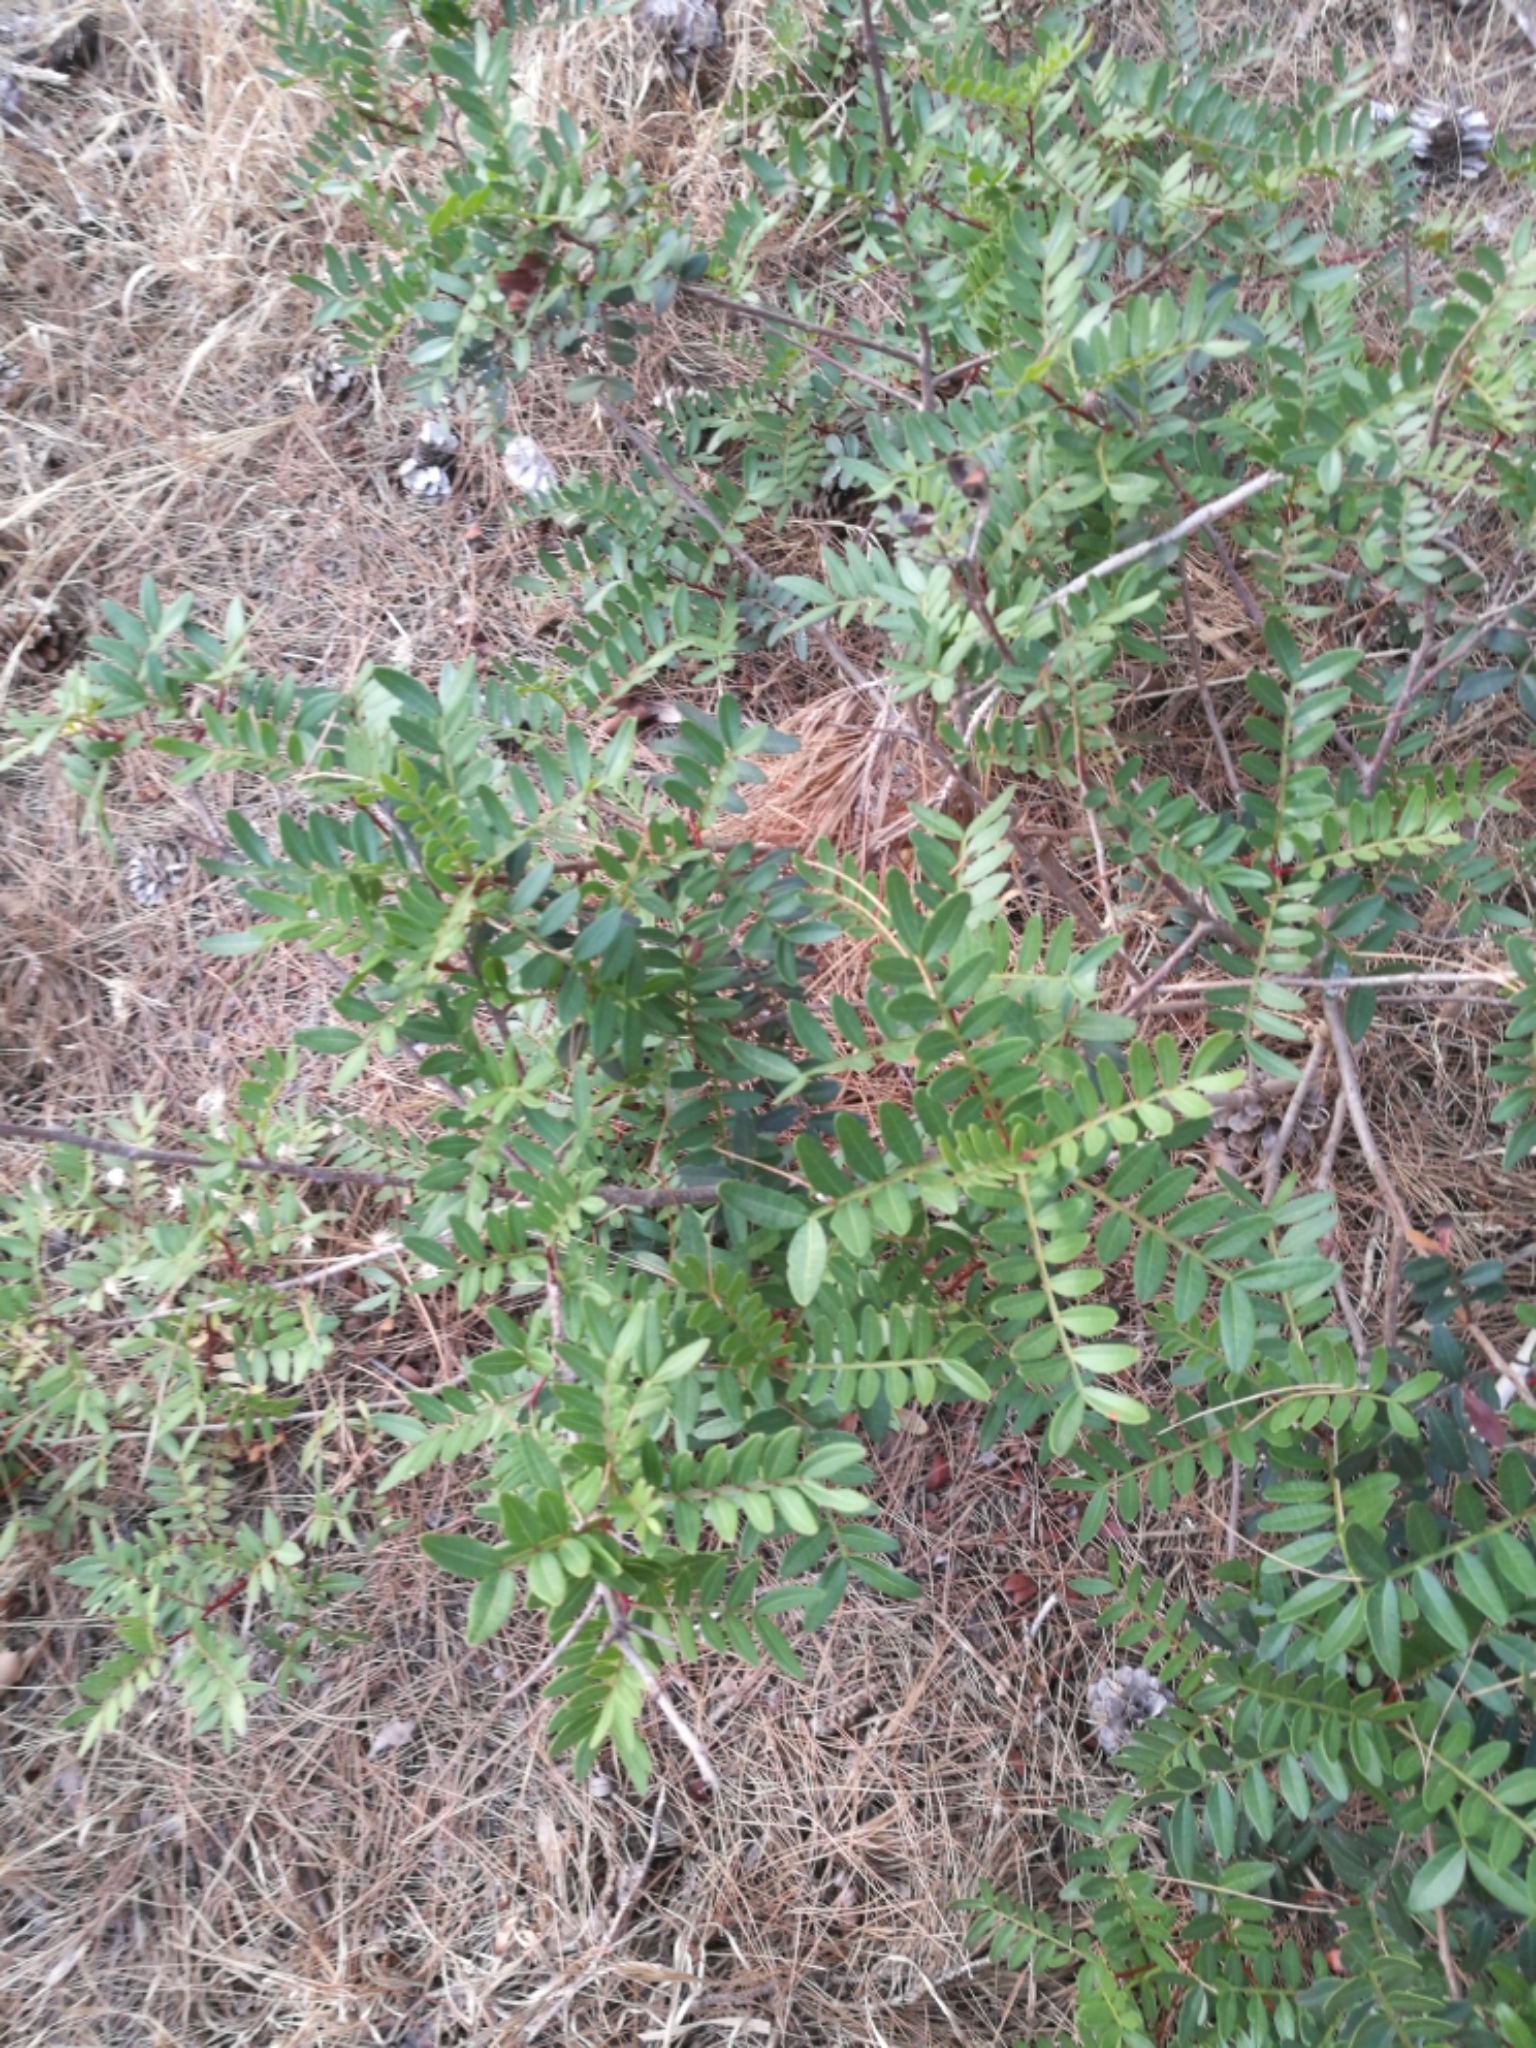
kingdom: Plantae
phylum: Tracheophyta
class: Magnoliopsida
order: Sapindales
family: Anacardiaceae
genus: Pistacia
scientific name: Pistacia lentiscus
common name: Lentisk
